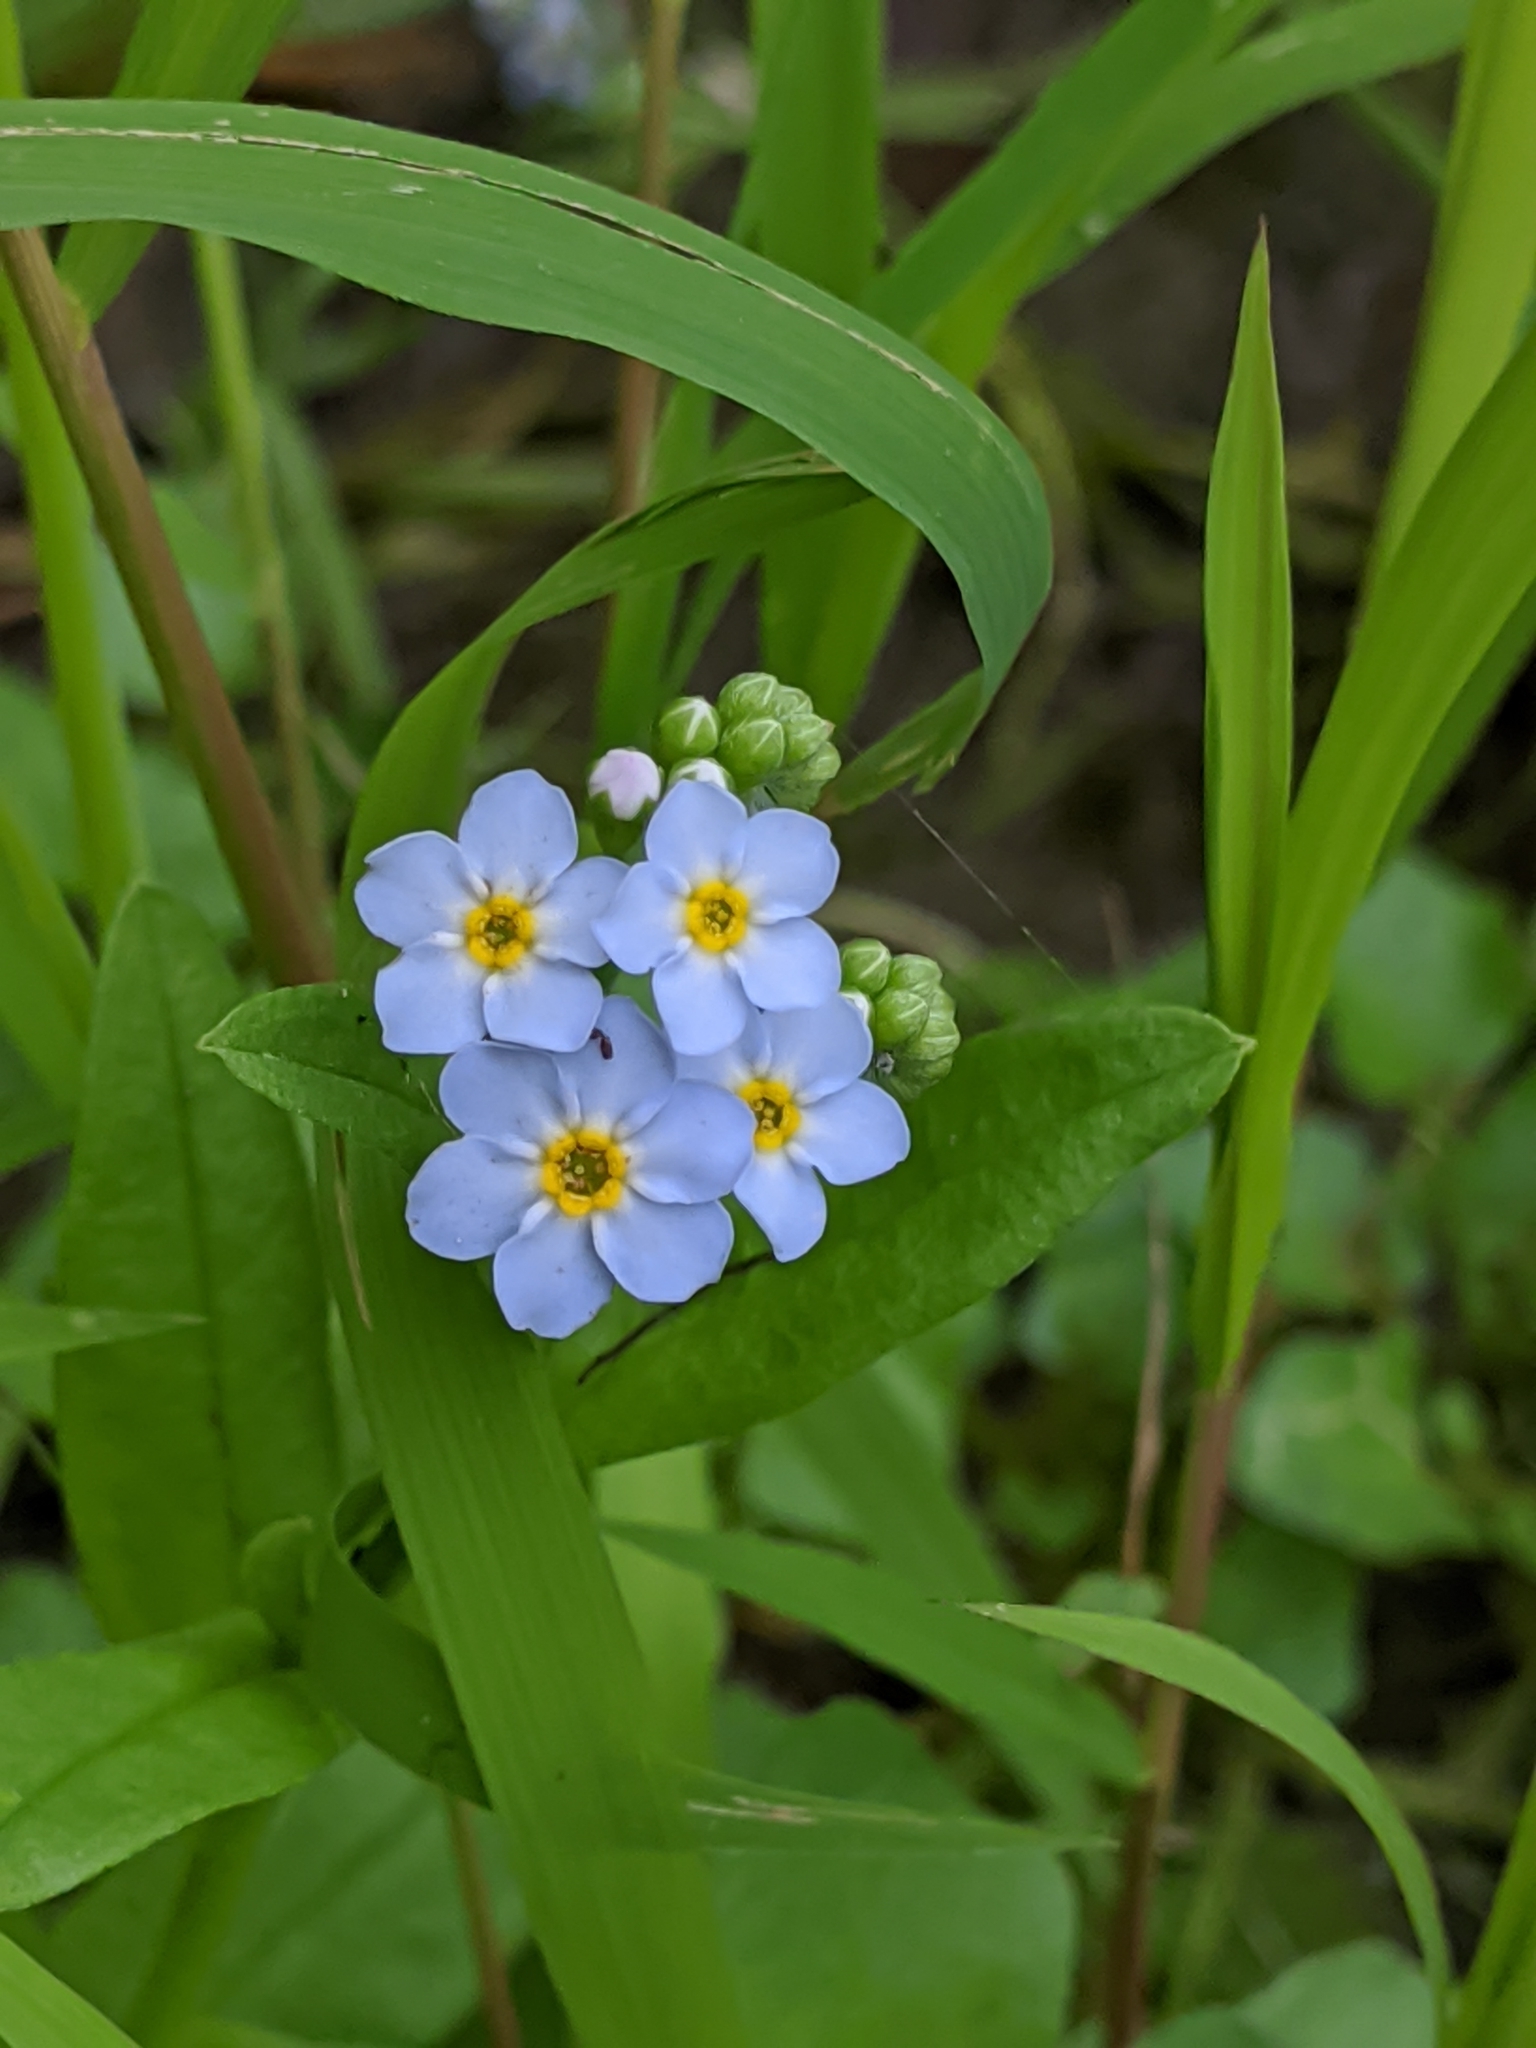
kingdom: Plantae
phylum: Tracheophyta
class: Magnoliopsida
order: Boraginales
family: Boraginaceae
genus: Myosotis
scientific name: Myosotis scorpioides
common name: Water forget-me-not
